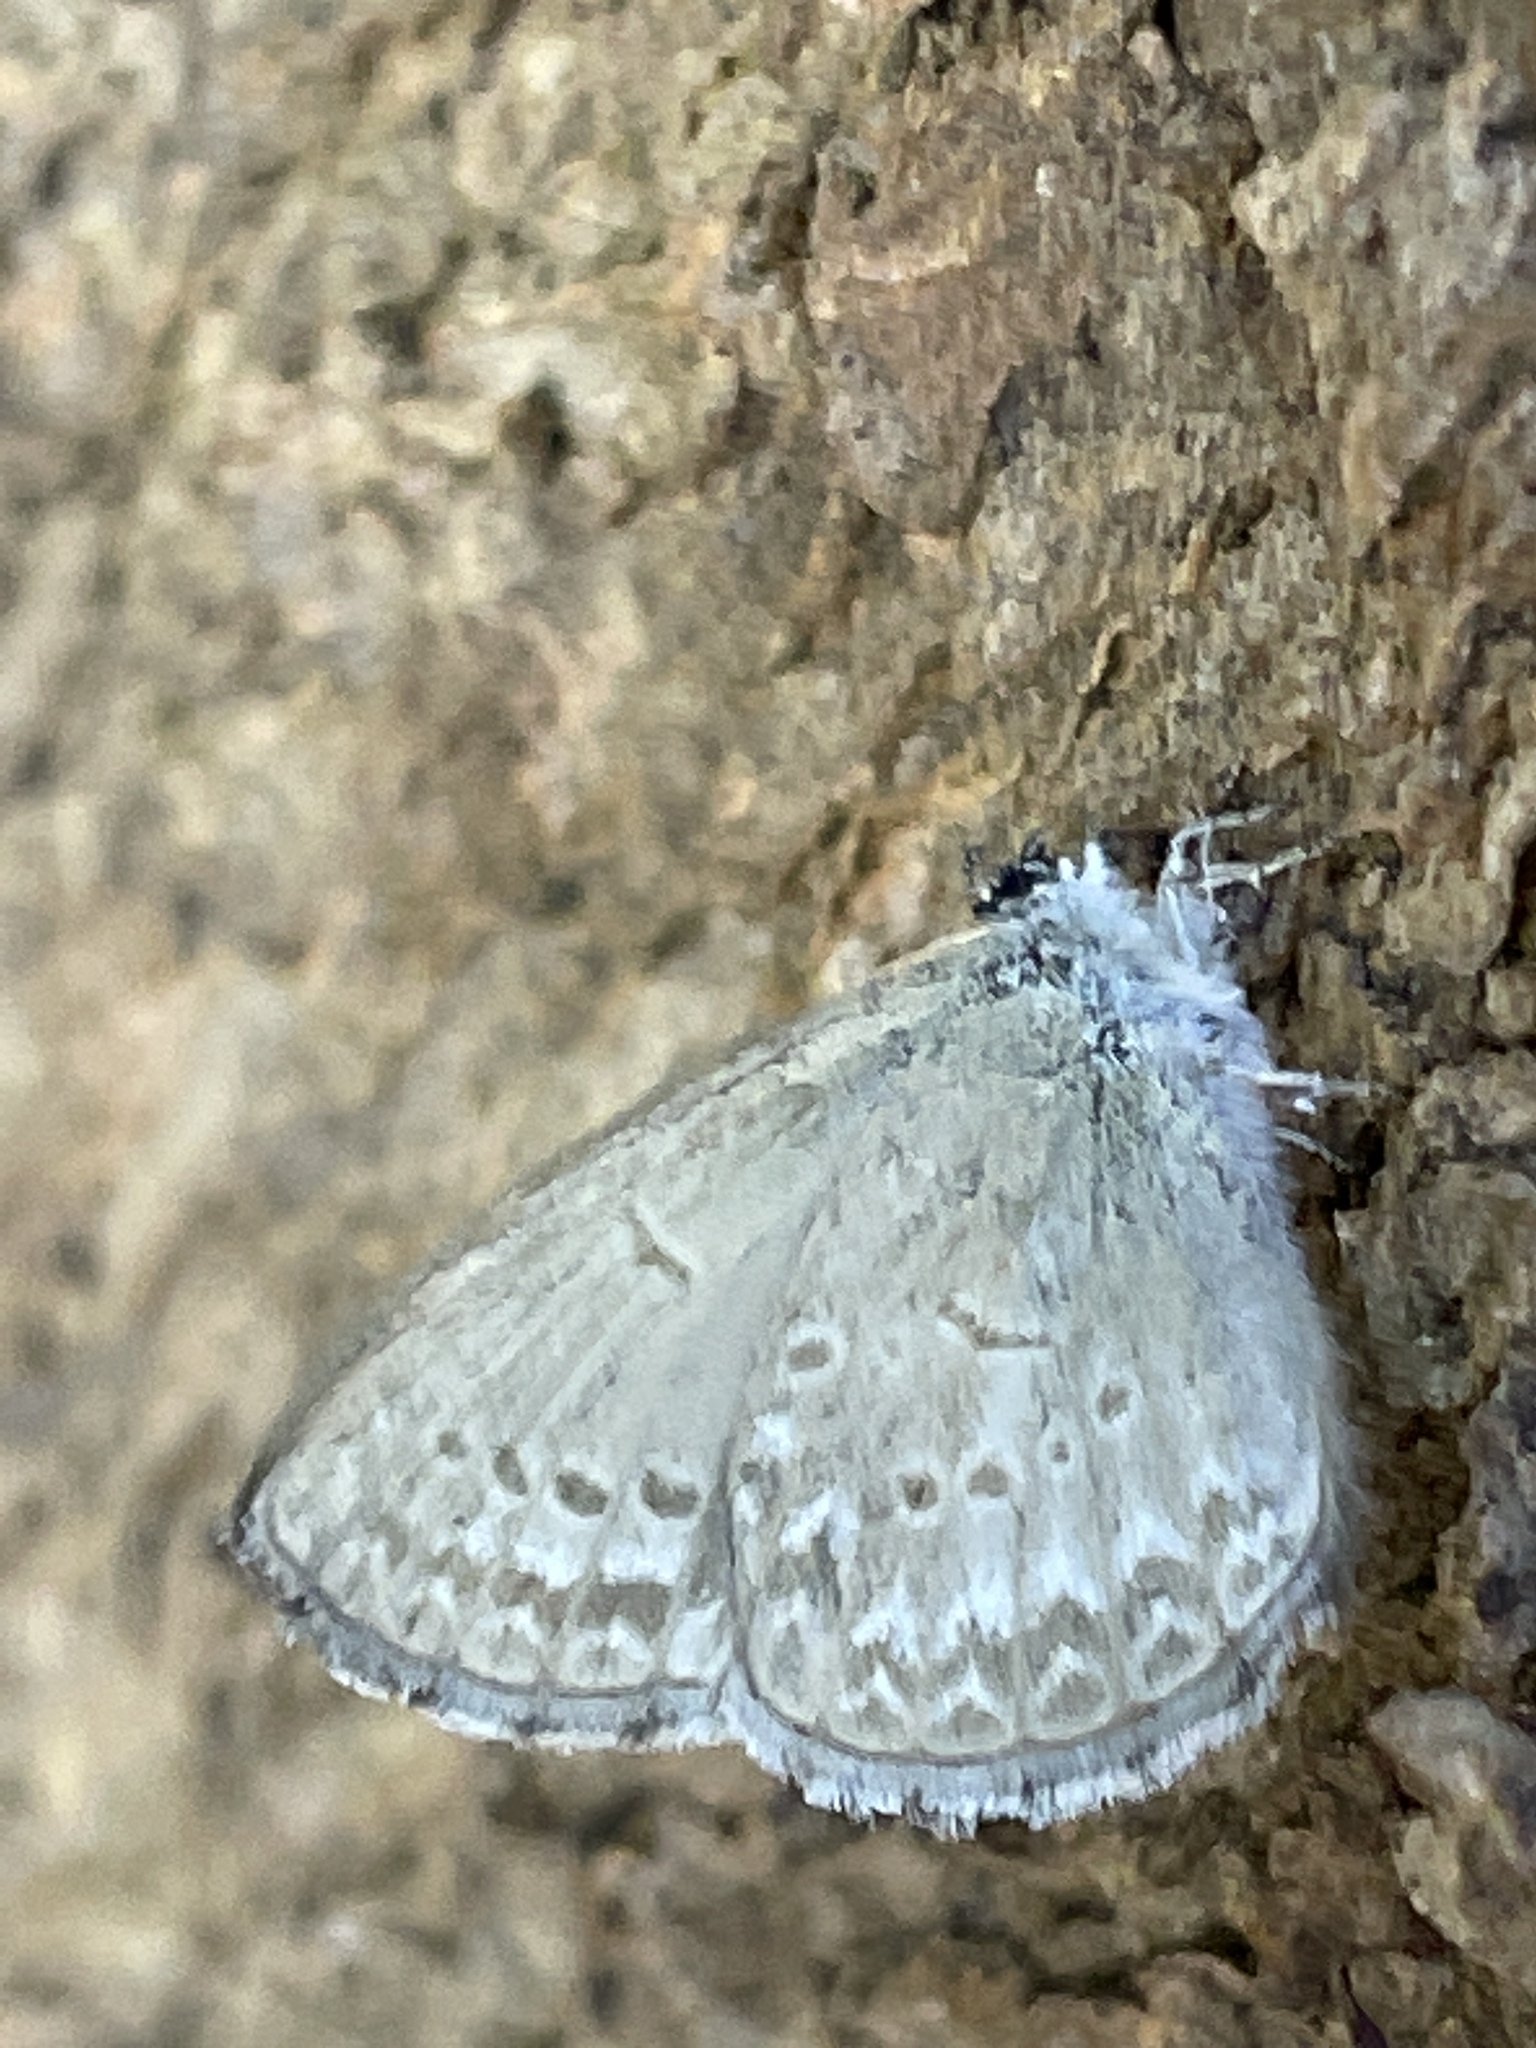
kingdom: Animalia
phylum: Arthropoda
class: Insecta
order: Lepidoptera
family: Lycaenidae
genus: Zizina
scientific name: Zizina otis
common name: Lesser grass blue
